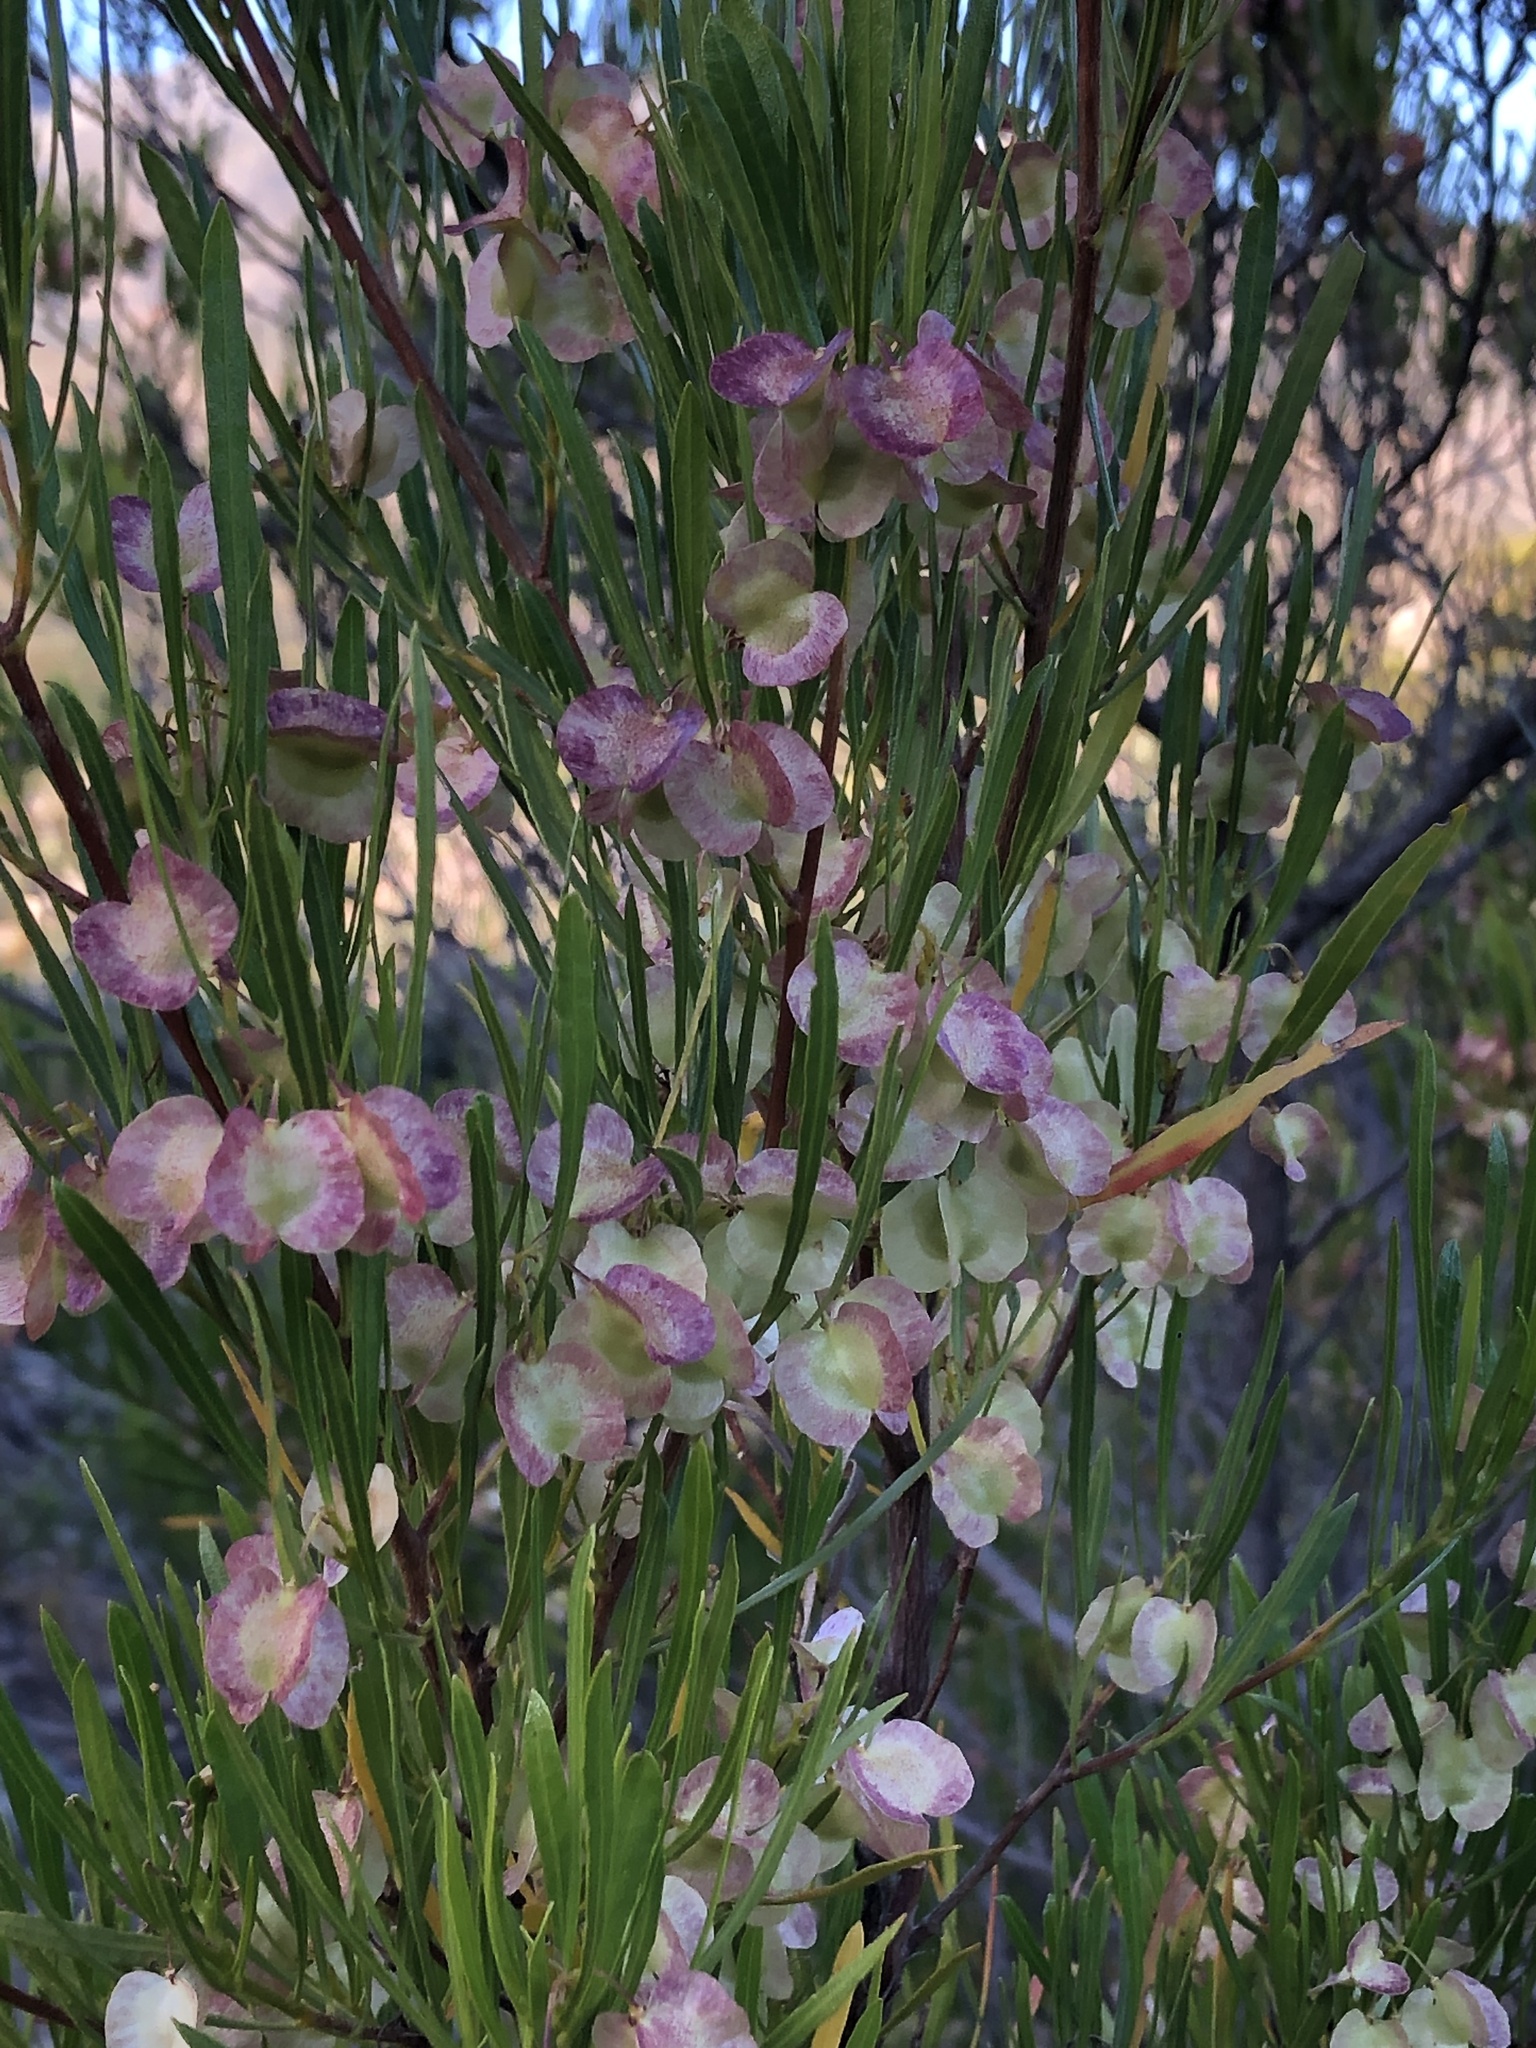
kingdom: Plantae
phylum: Tracheophyta
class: Magnoliopsida
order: Sapindales
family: Sapindaceae
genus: Dodonaea
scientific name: Dodonaea viscosa
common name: Hopbush
